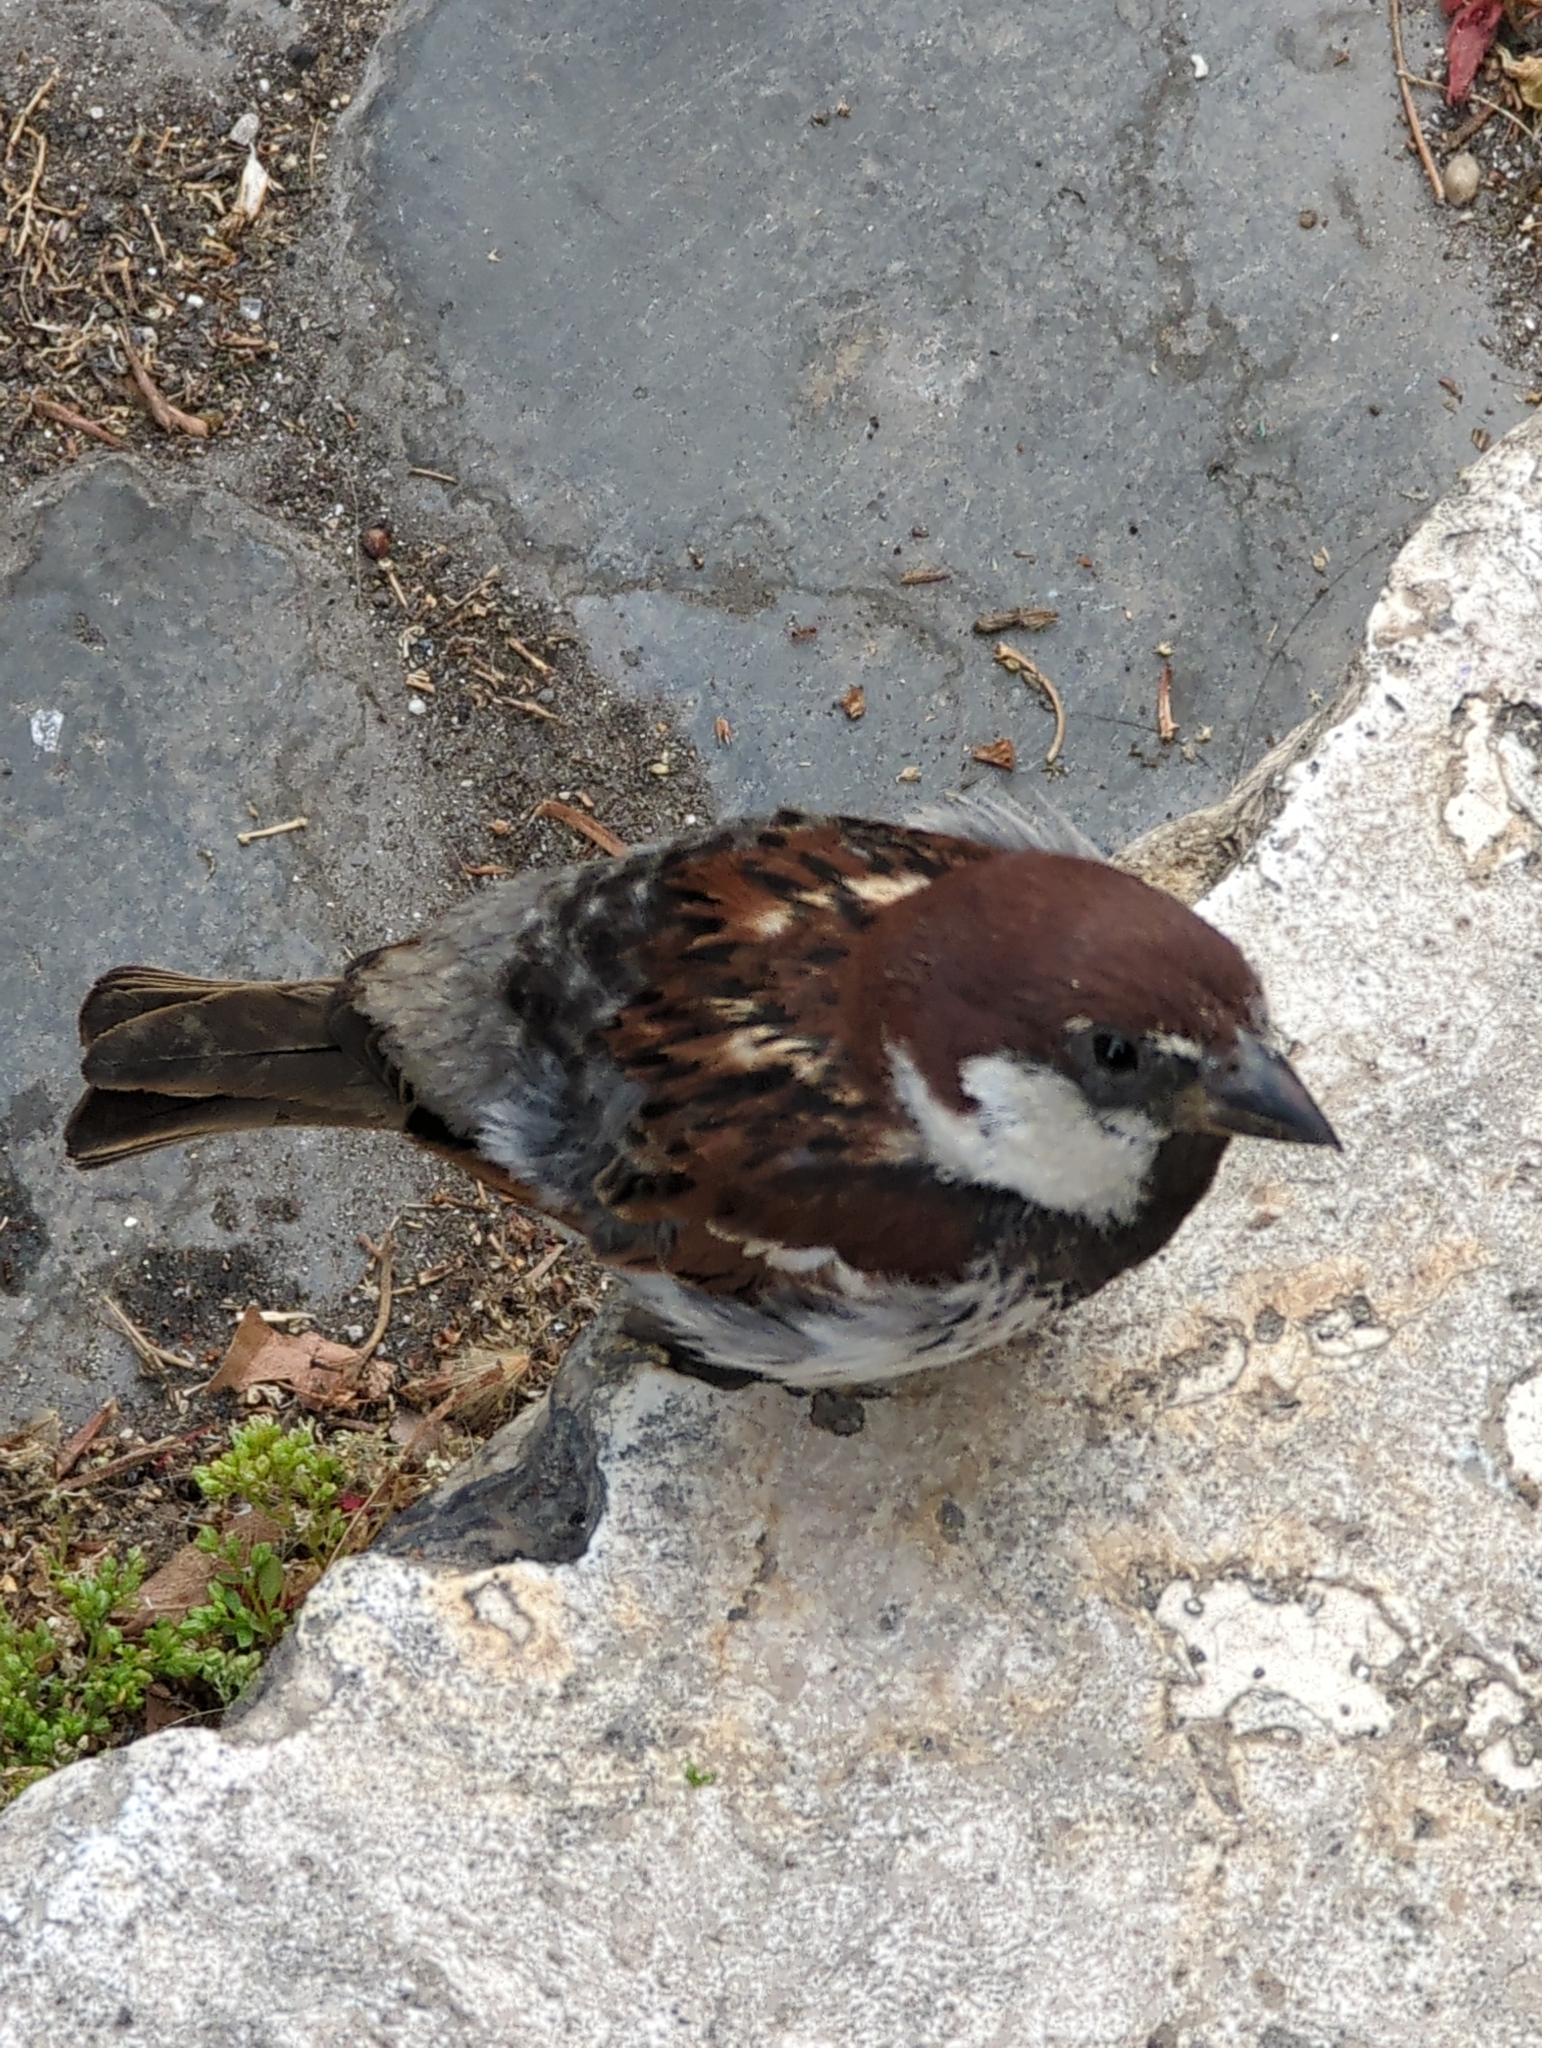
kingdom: Animalia
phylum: Chordata
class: Aves
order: Passeriformes
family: Passeridae
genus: Passer
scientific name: Passer italiae
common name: Italian sparrow
